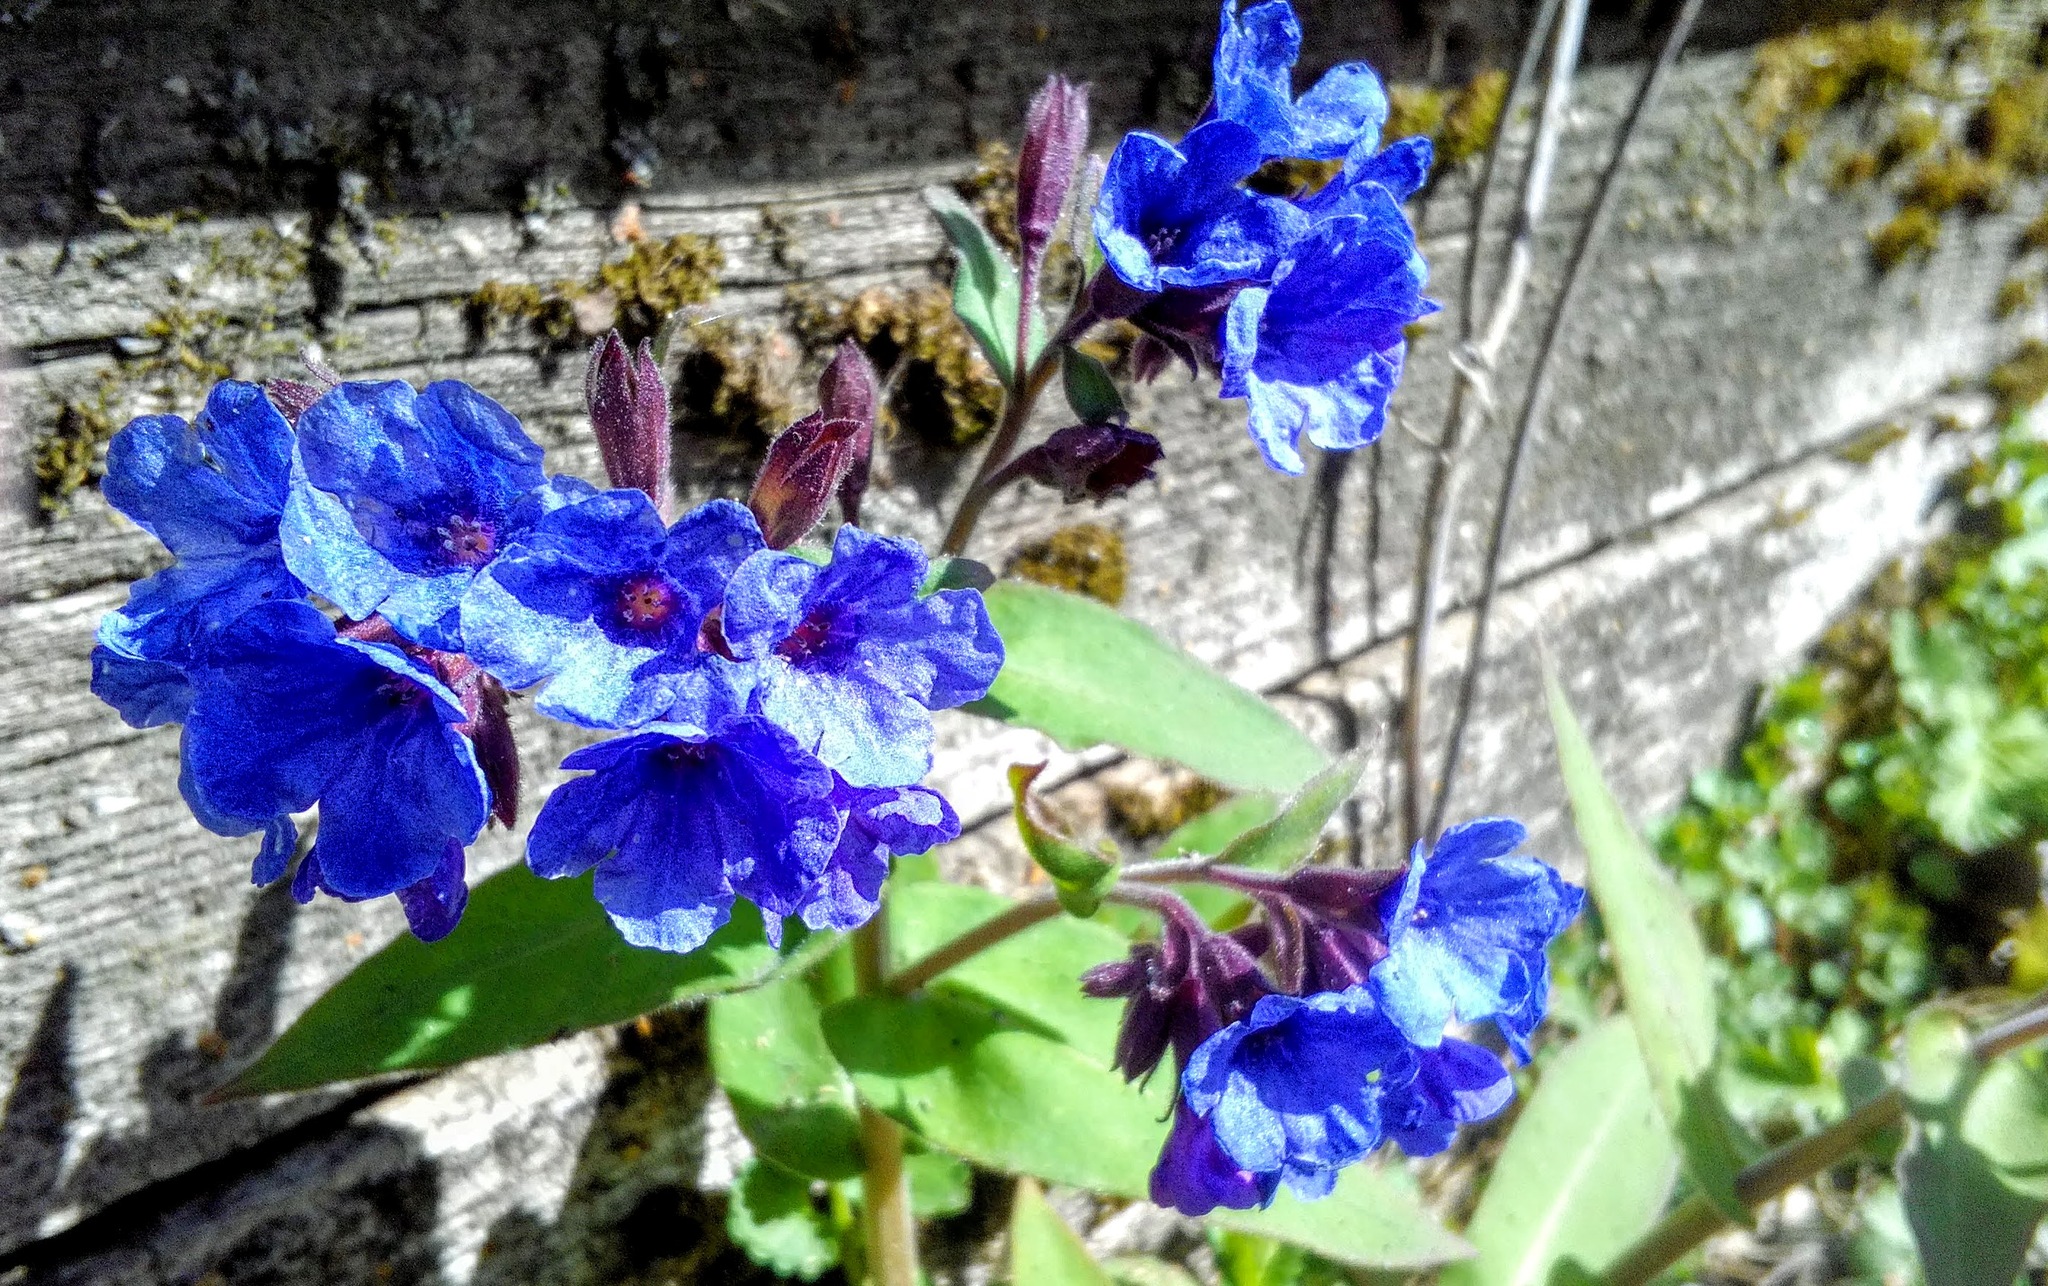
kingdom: Plantae
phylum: Tracheophyta
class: Magnoliopsida
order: Boraginales
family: Boraginaceae
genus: Pulmonaria
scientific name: Pulmonaria mollis
